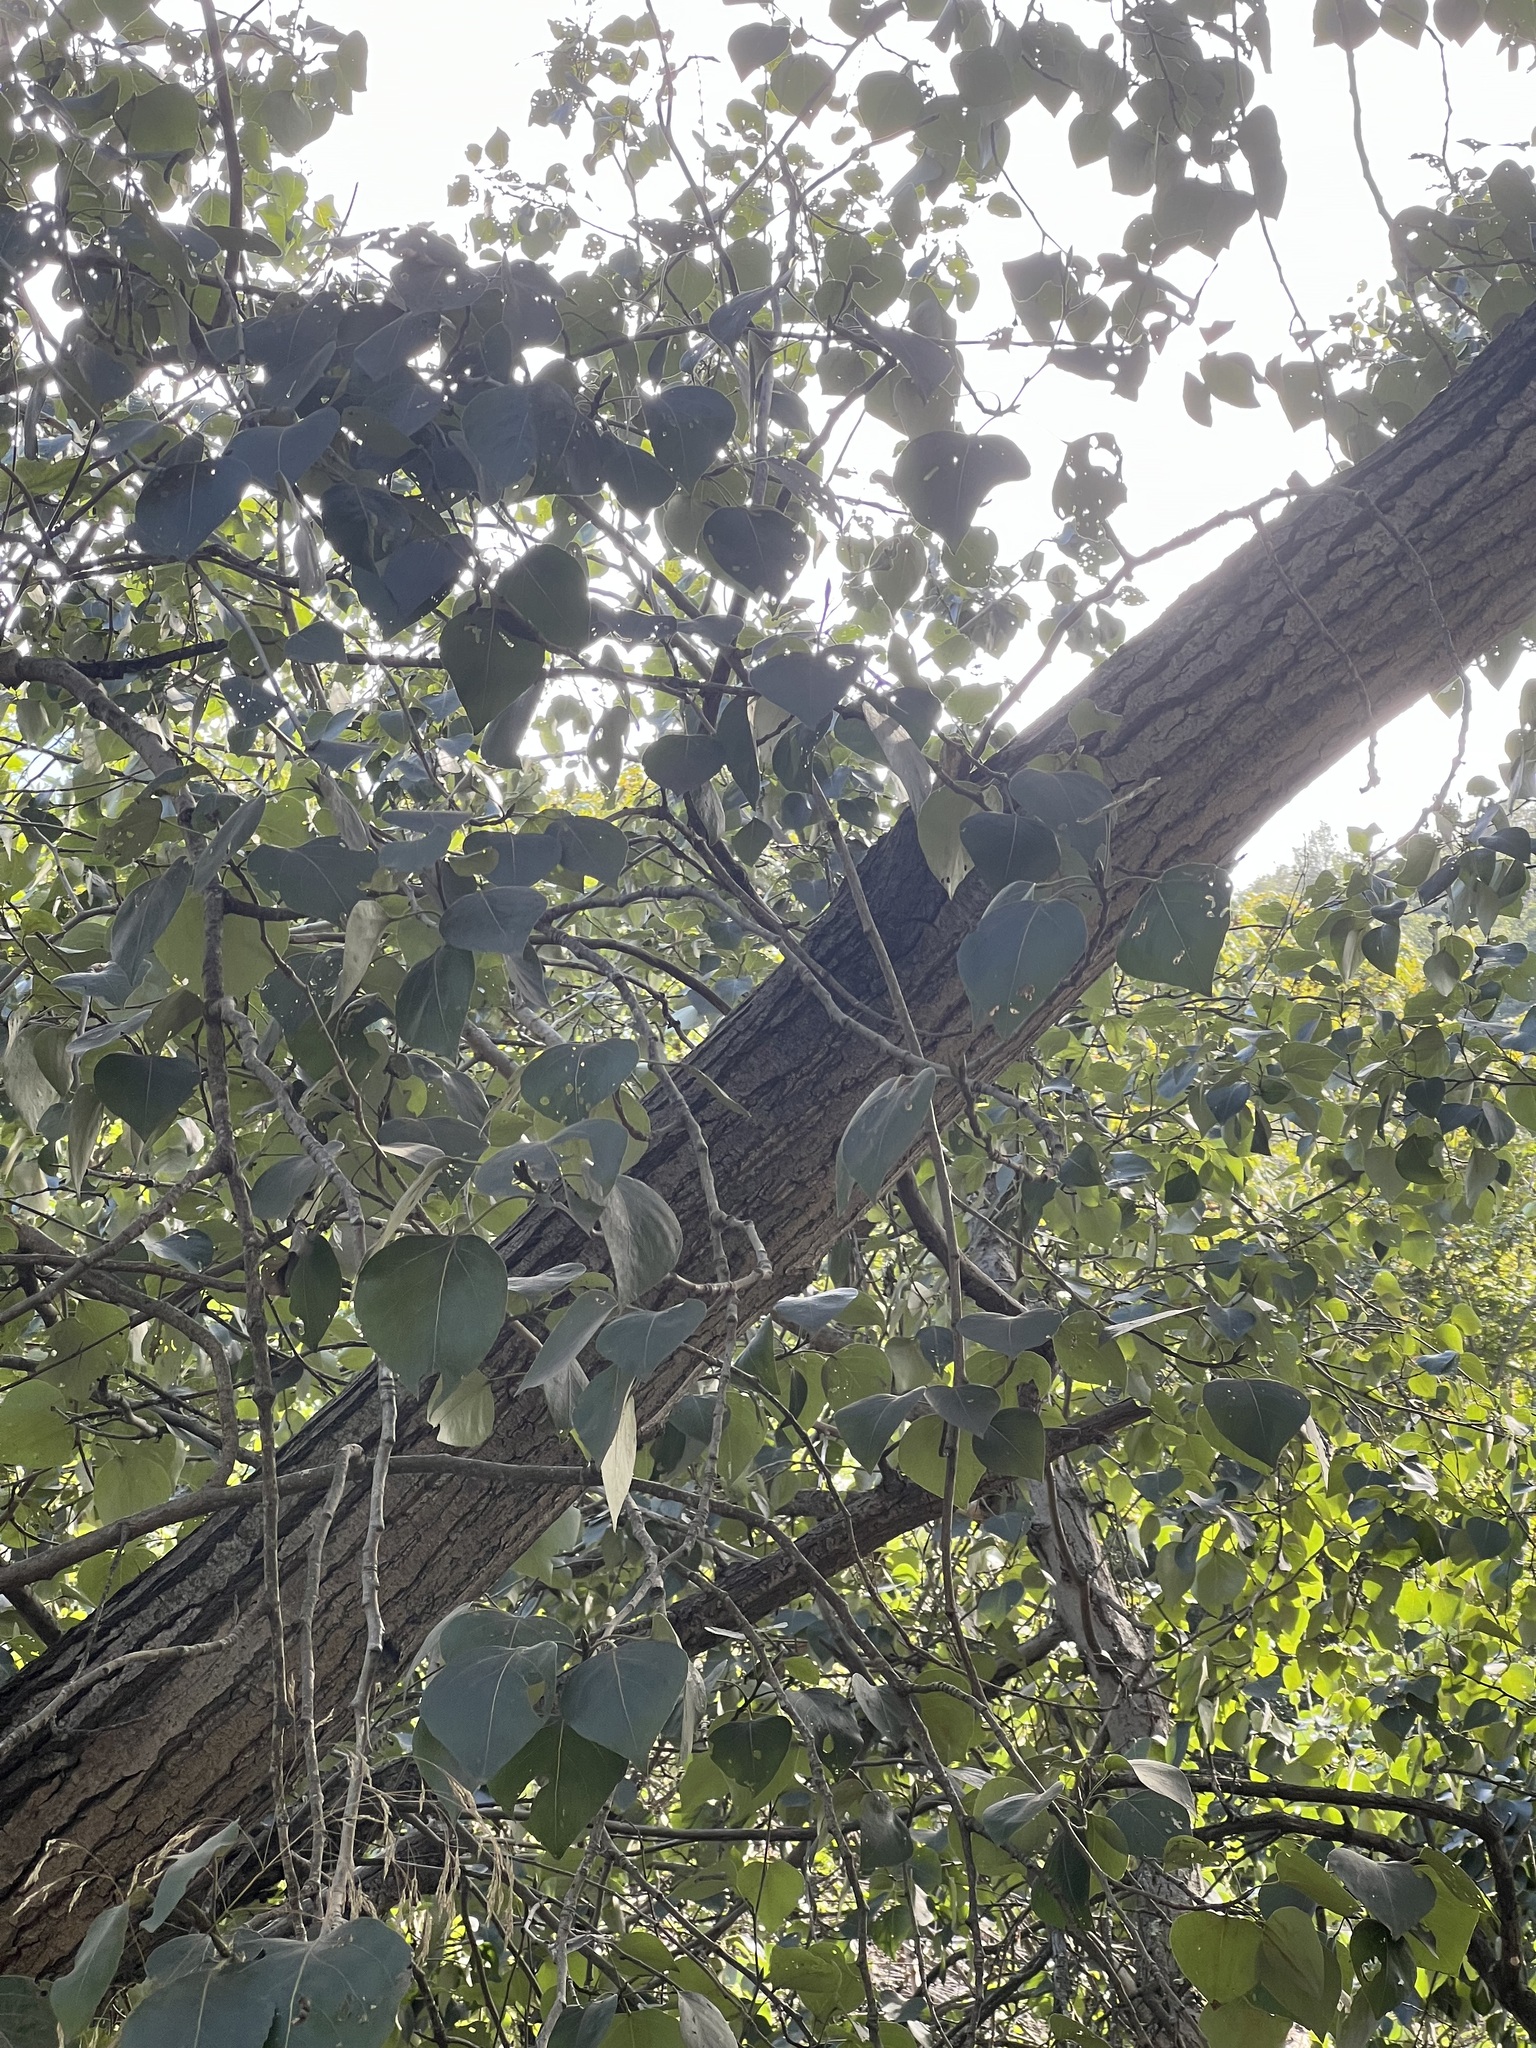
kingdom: Plantae
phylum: Tracheophyta
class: Magnoliopsida
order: Malpighiales
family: Salicaceae
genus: Populus
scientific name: Populus fremontii
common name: Fremont's cottonwood
